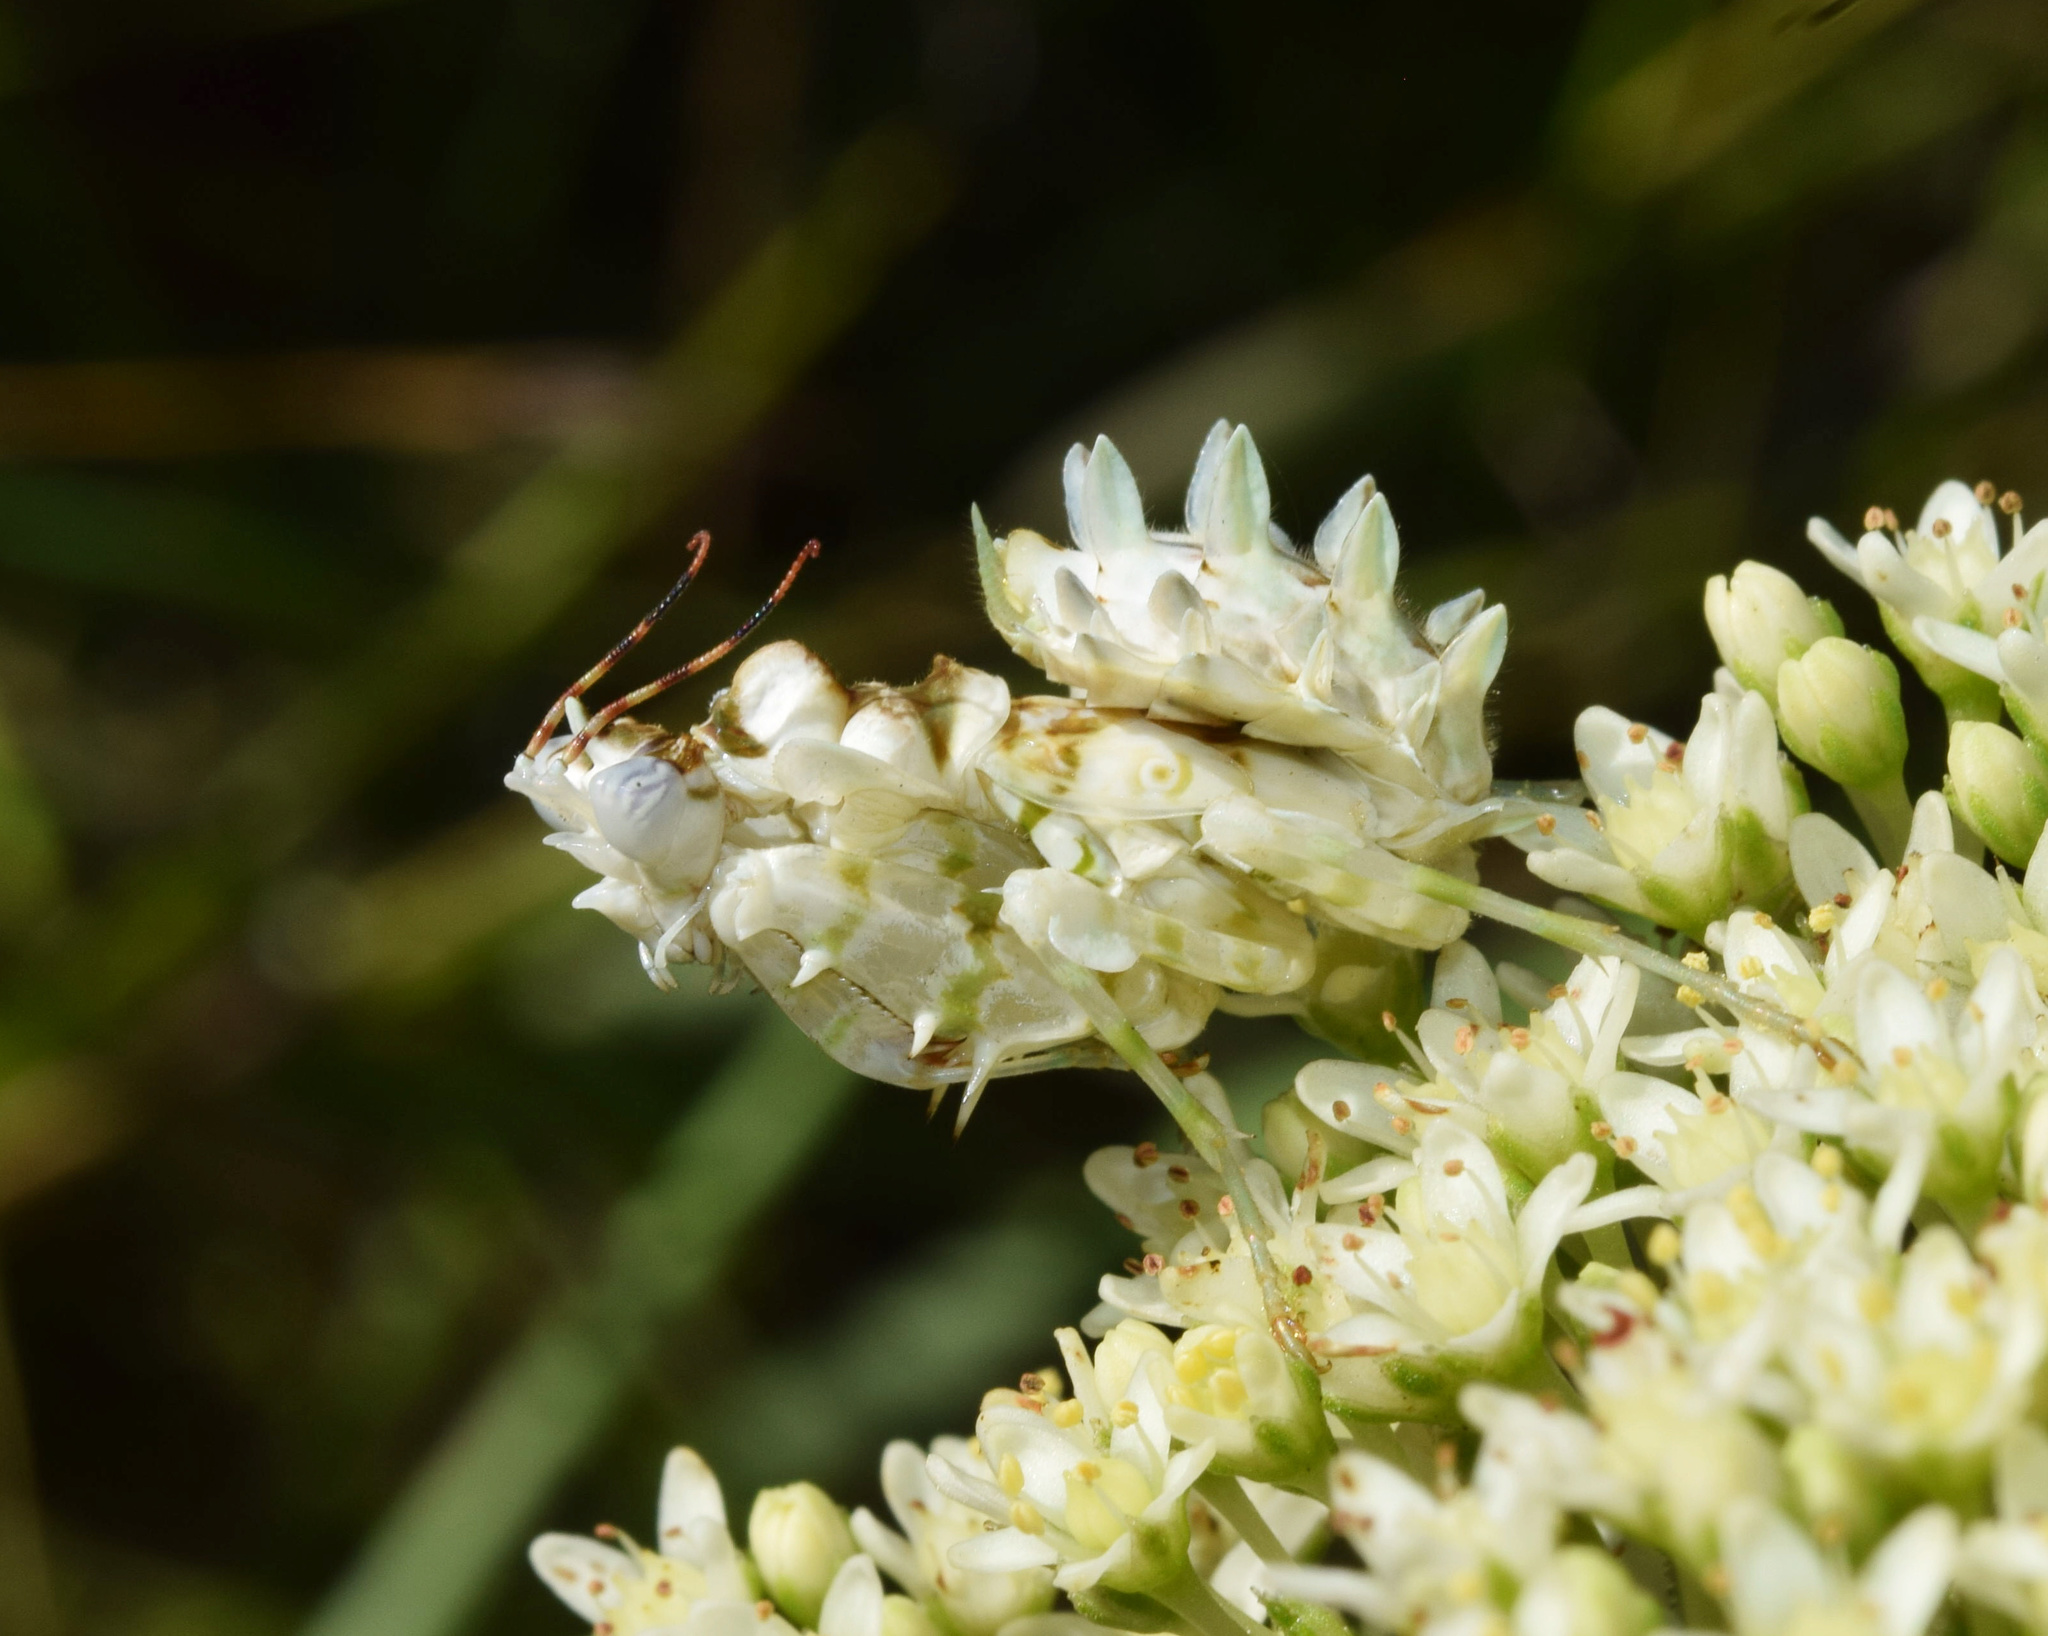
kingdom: Animalia
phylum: Arthropoda
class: Insecta
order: Mantodea
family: Hymenopodidae
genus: Pseudocreobotra
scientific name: Pseudocreobotra wahlbergi
